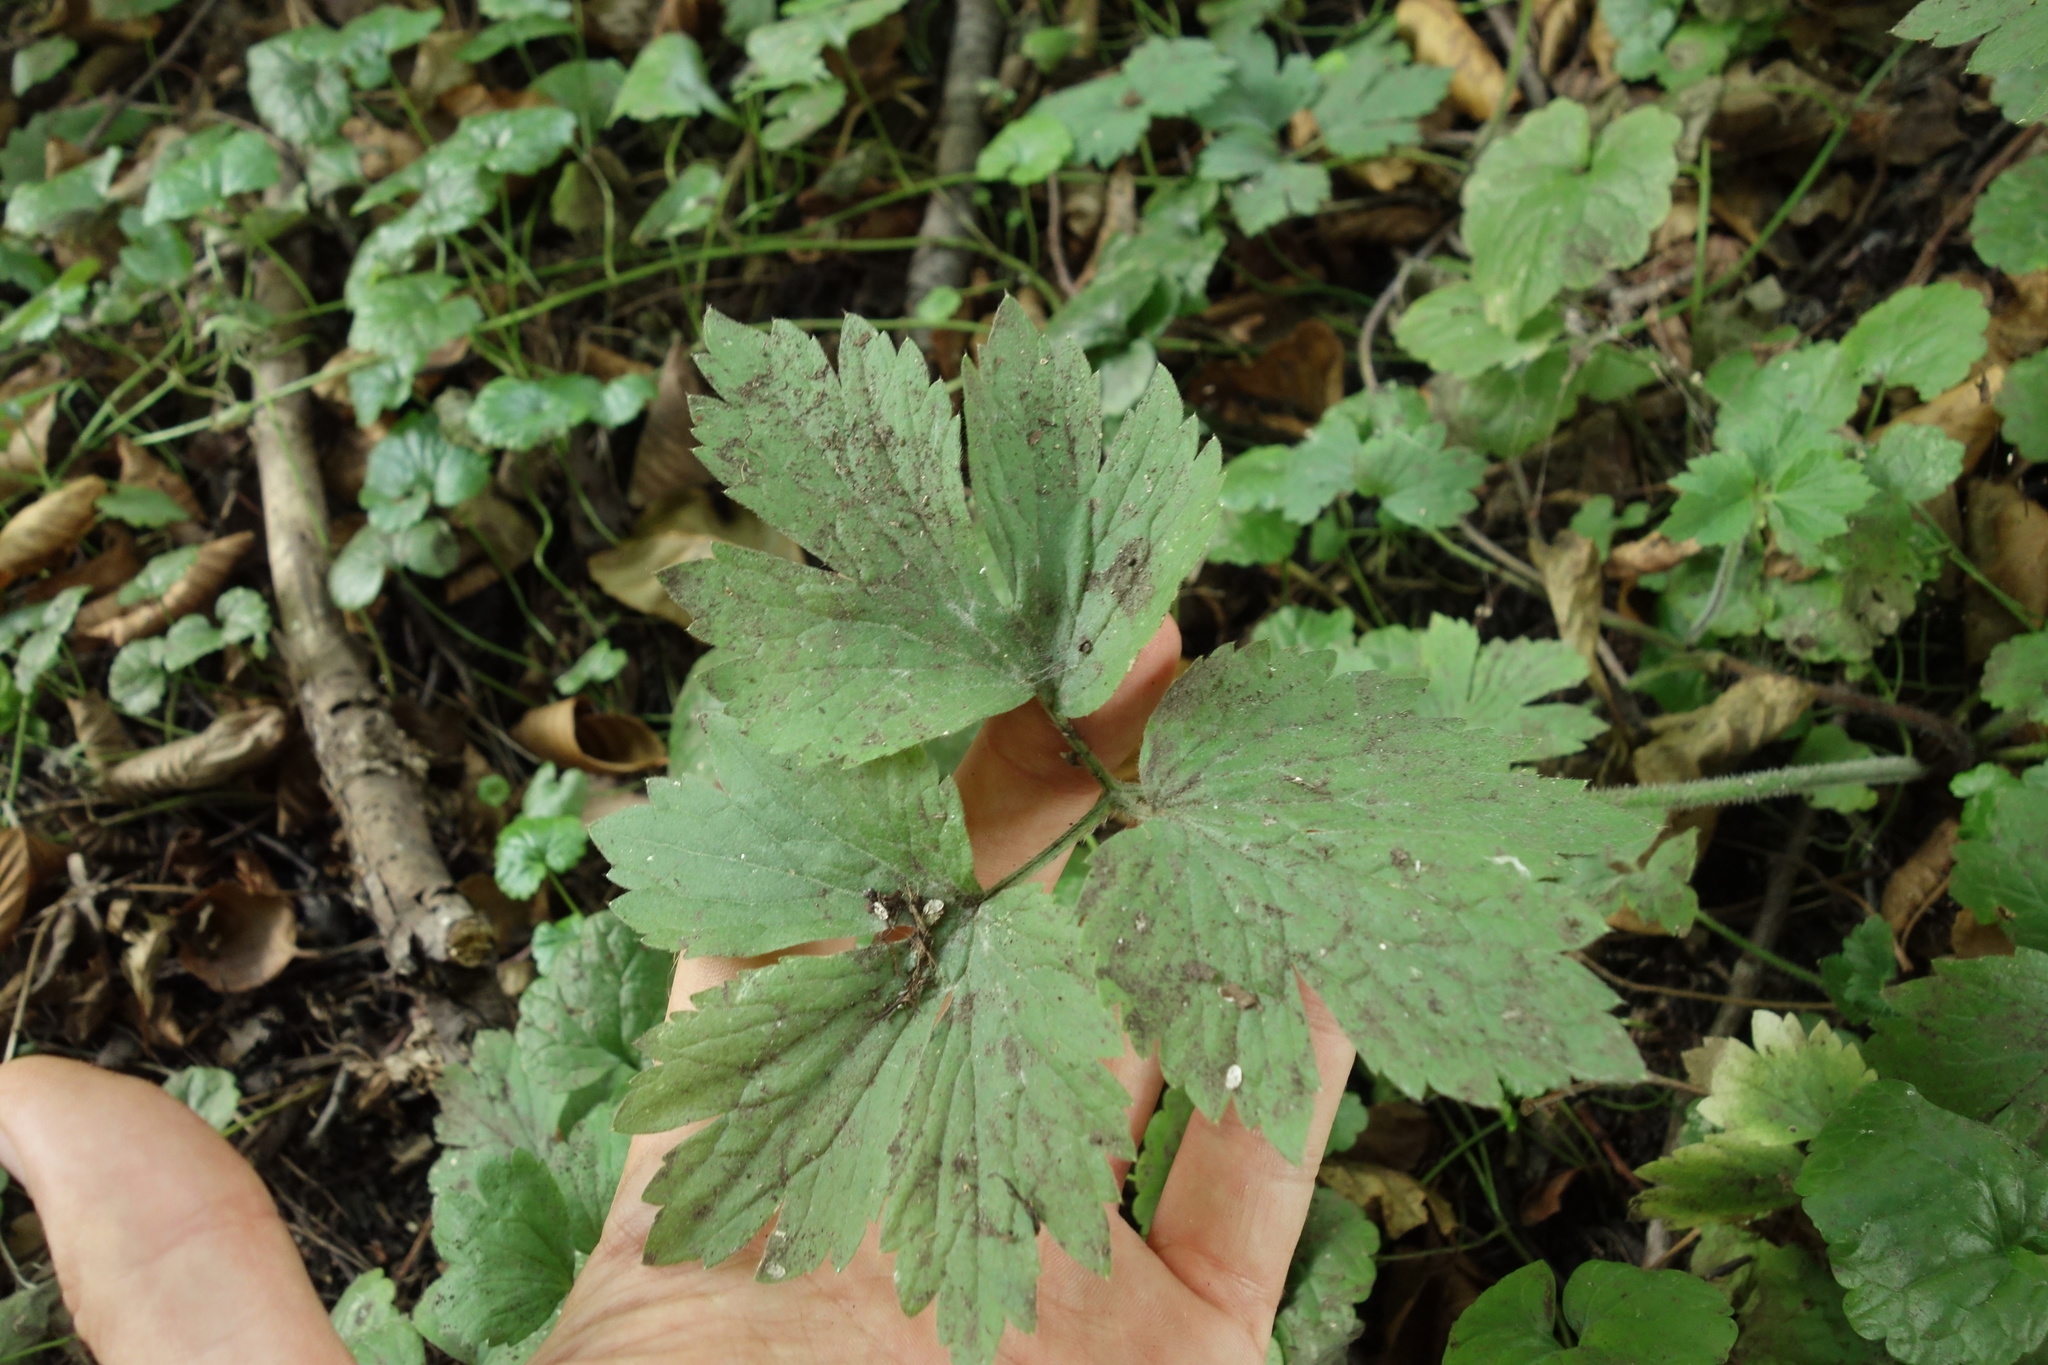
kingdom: Plantae
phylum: Tracheophyta
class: Magnoliopsida
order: Ranunculales
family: Ranunculaceae
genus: Ranunculus
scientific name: Ranunculus repens
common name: Creeping buttercup
